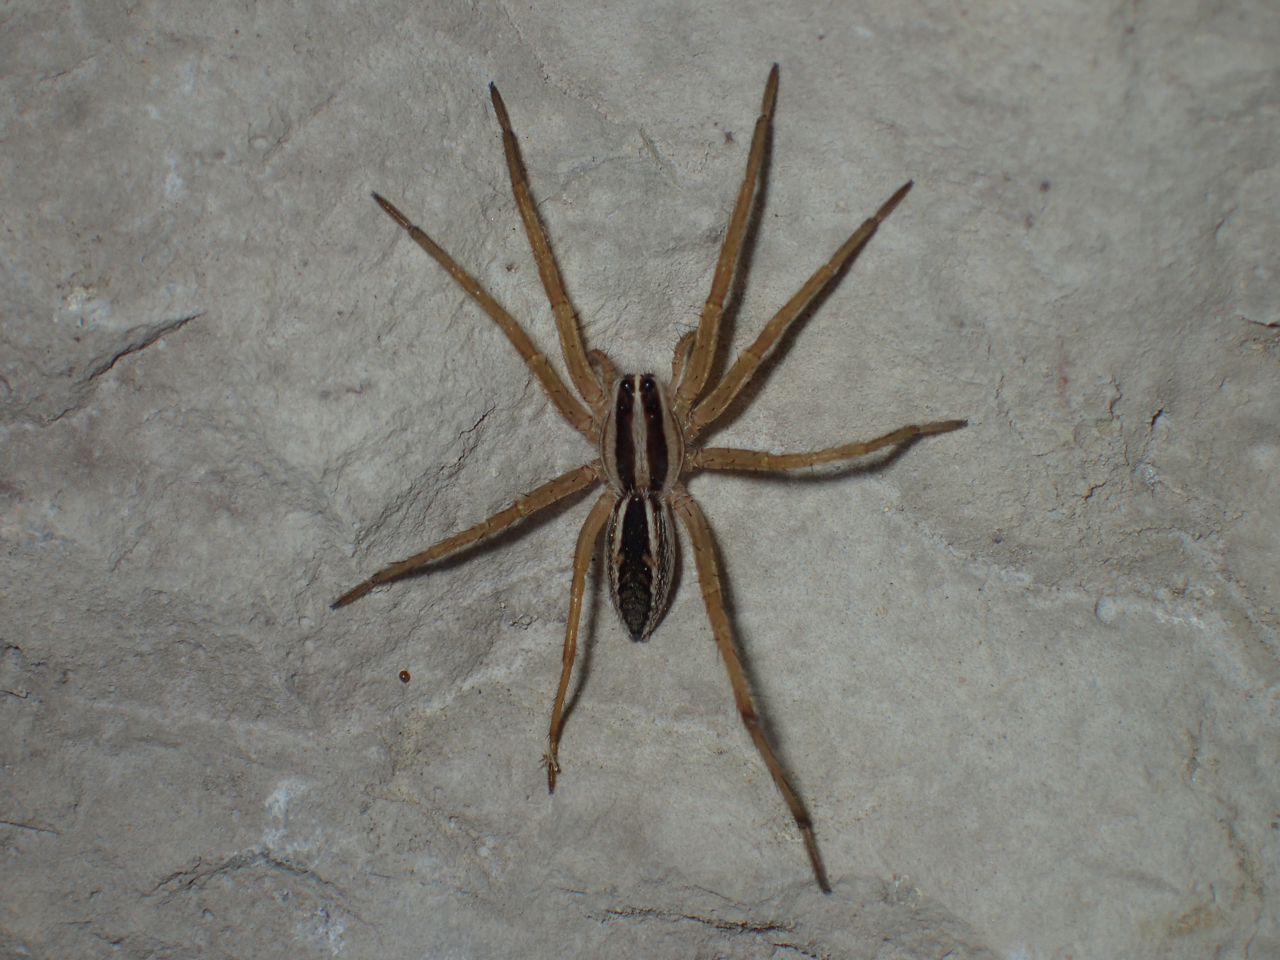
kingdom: Animalia
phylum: Arthropoda
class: Arachnida
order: Araneae
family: Lycosidae
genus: Rabidosa
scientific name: Rabidosa rabida
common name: Rabid wolf spider
